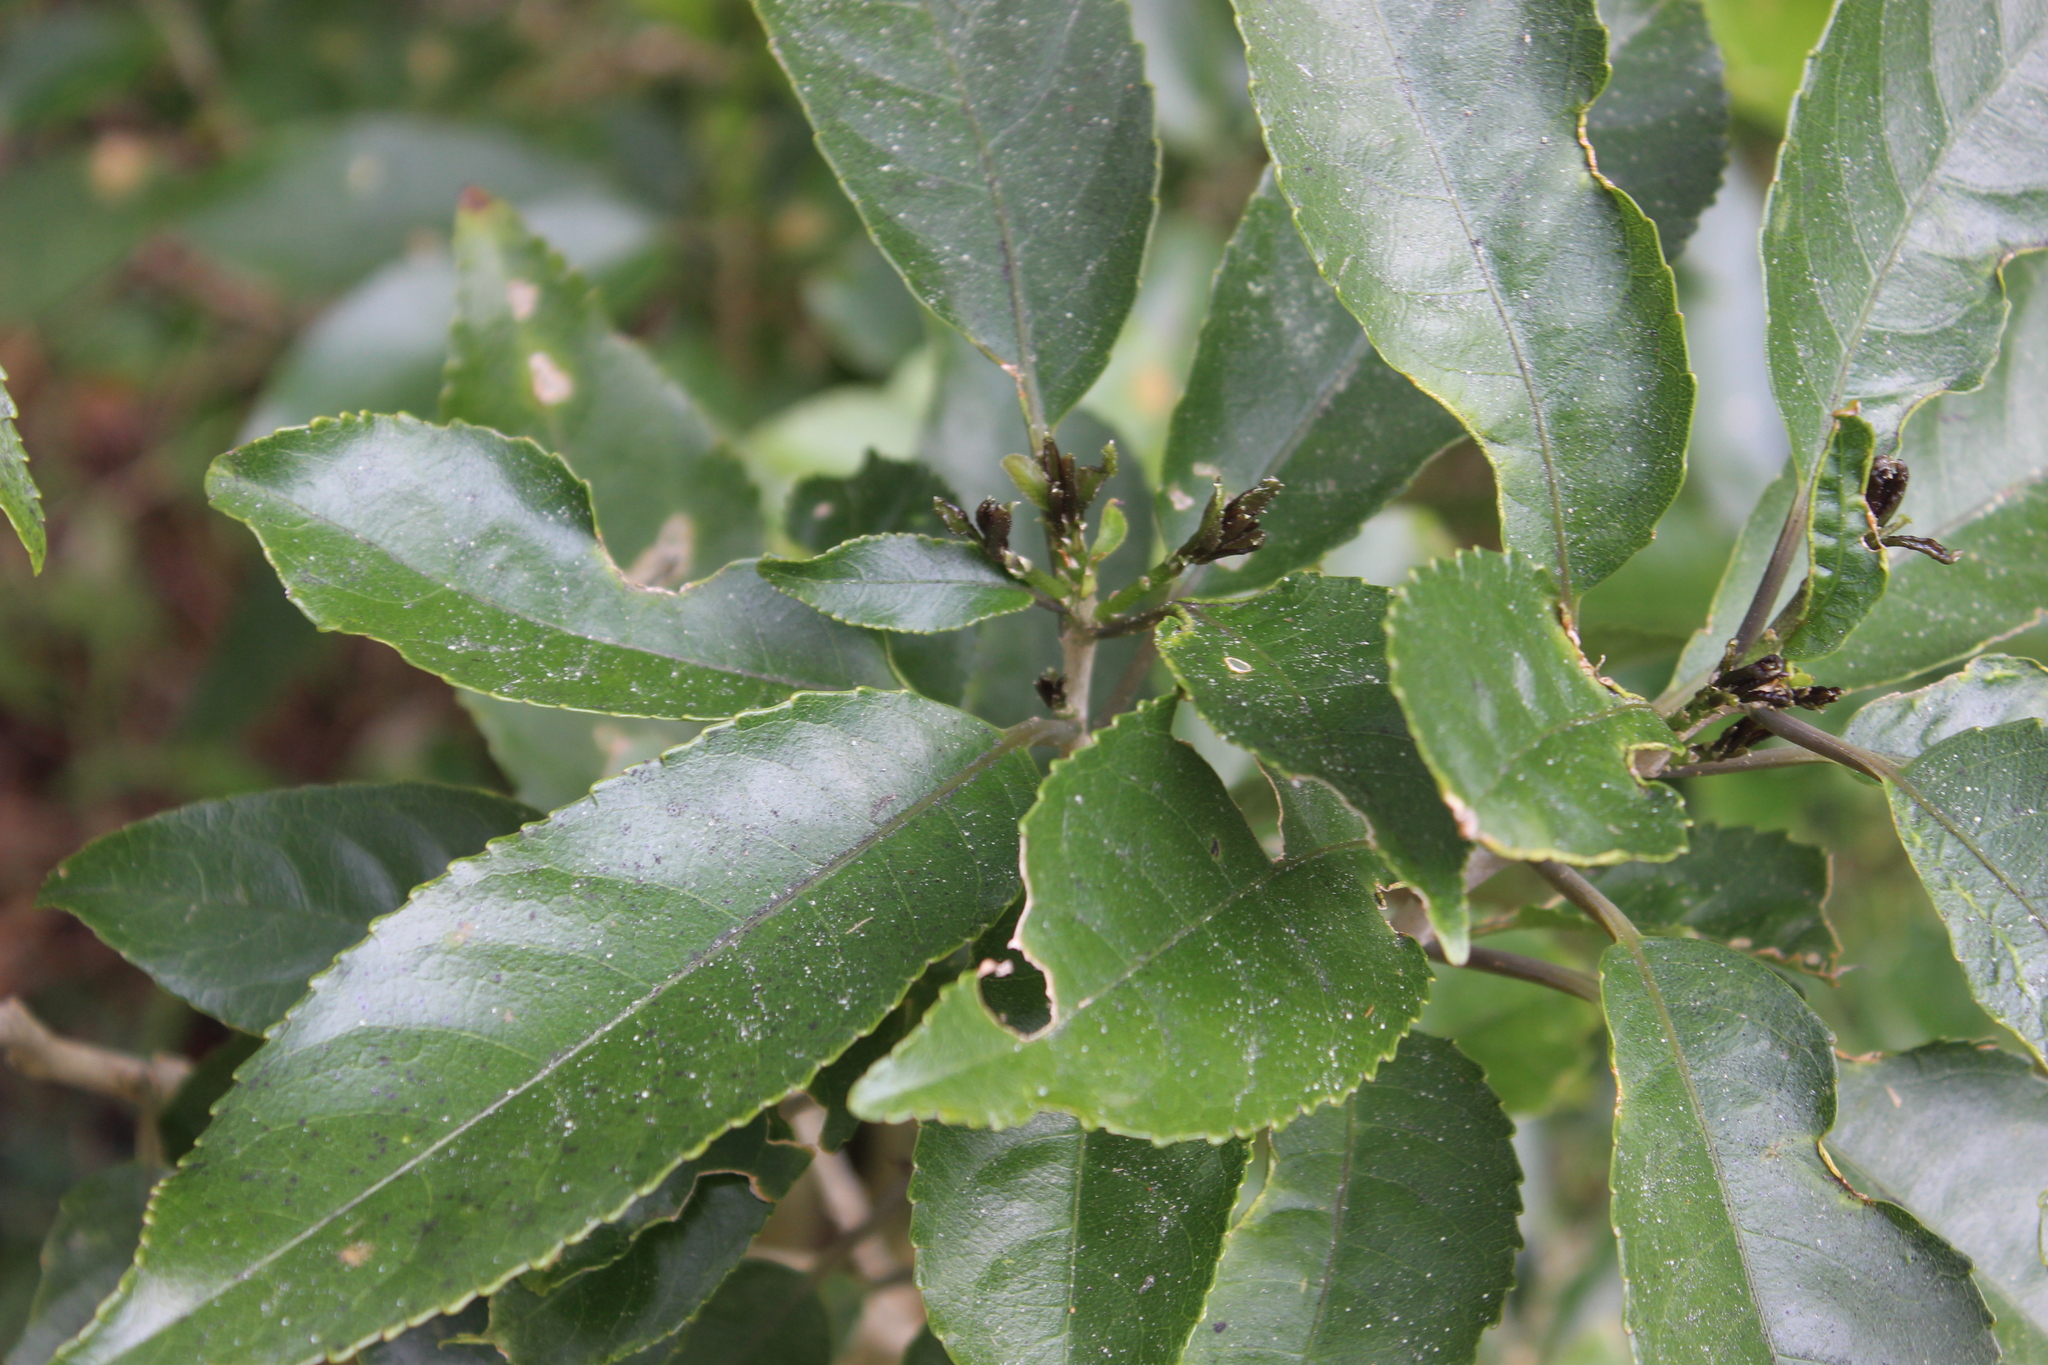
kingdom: Plantae
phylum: Tracheophyta
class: Magnoliopsida
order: Malpighiales
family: Violaceae
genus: Melicytus
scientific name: Melicytus ramiflorus
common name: Mahoe
